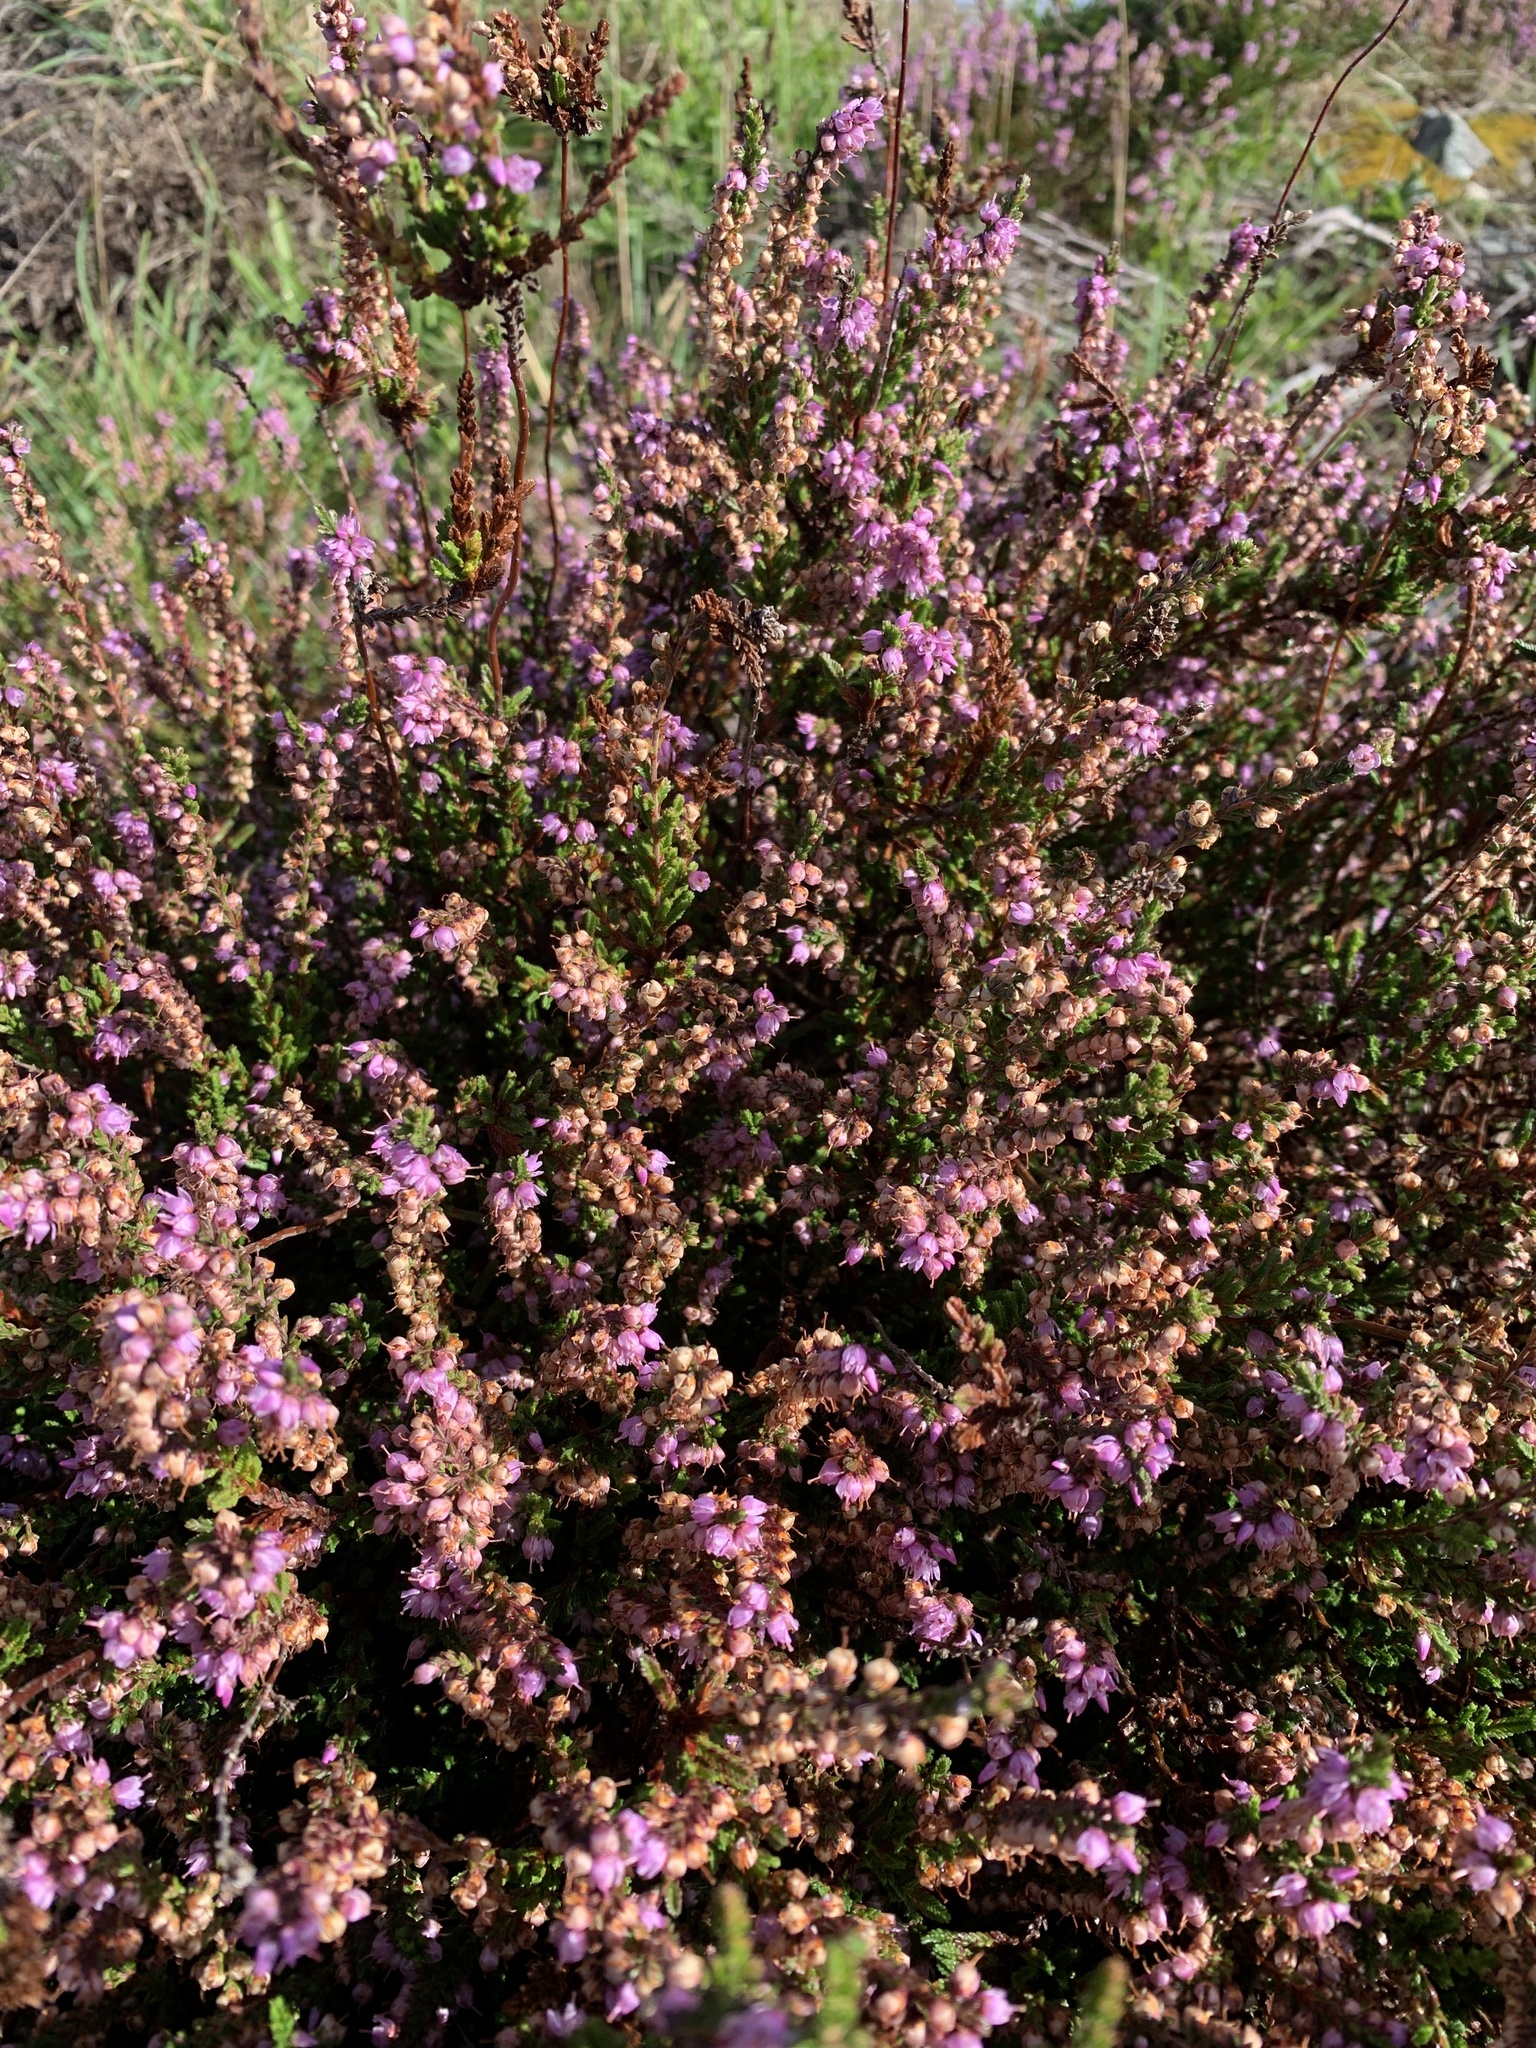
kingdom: Plantae
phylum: Tracheophyta
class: Magnoliopsida
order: Ericales
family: Ericaceae
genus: Calluna
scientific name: Calluna vulgaris
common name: Heather
